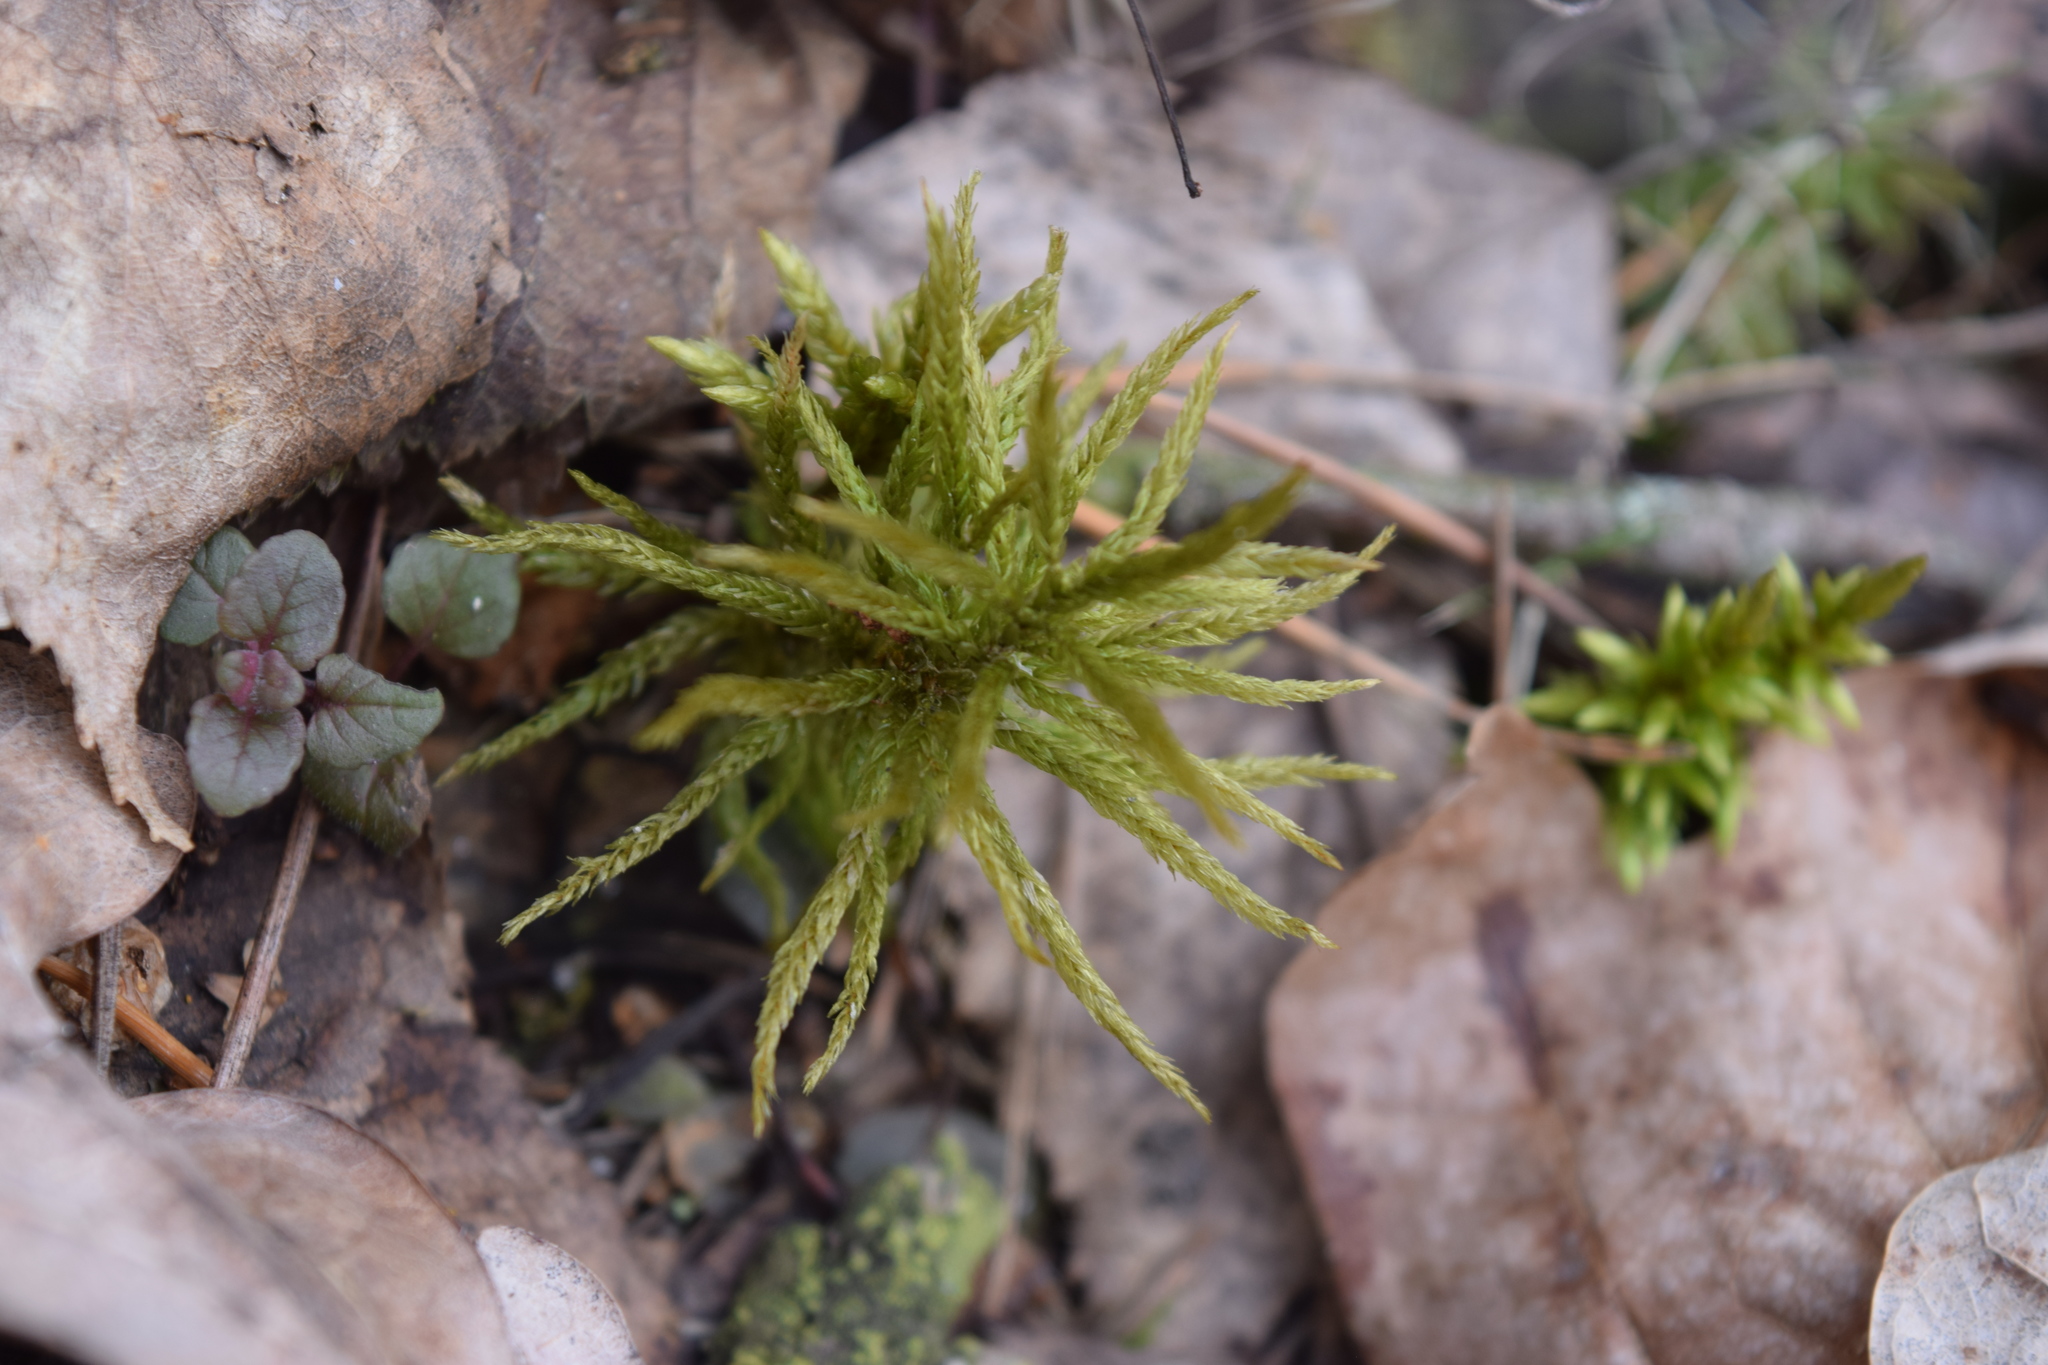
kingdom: Plantae
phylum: Bryophyta
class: Bryopsida
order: Hypnales
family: Climaciaceae
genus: Climacium
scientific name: Climacium dendroides
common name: Northern tree moss
